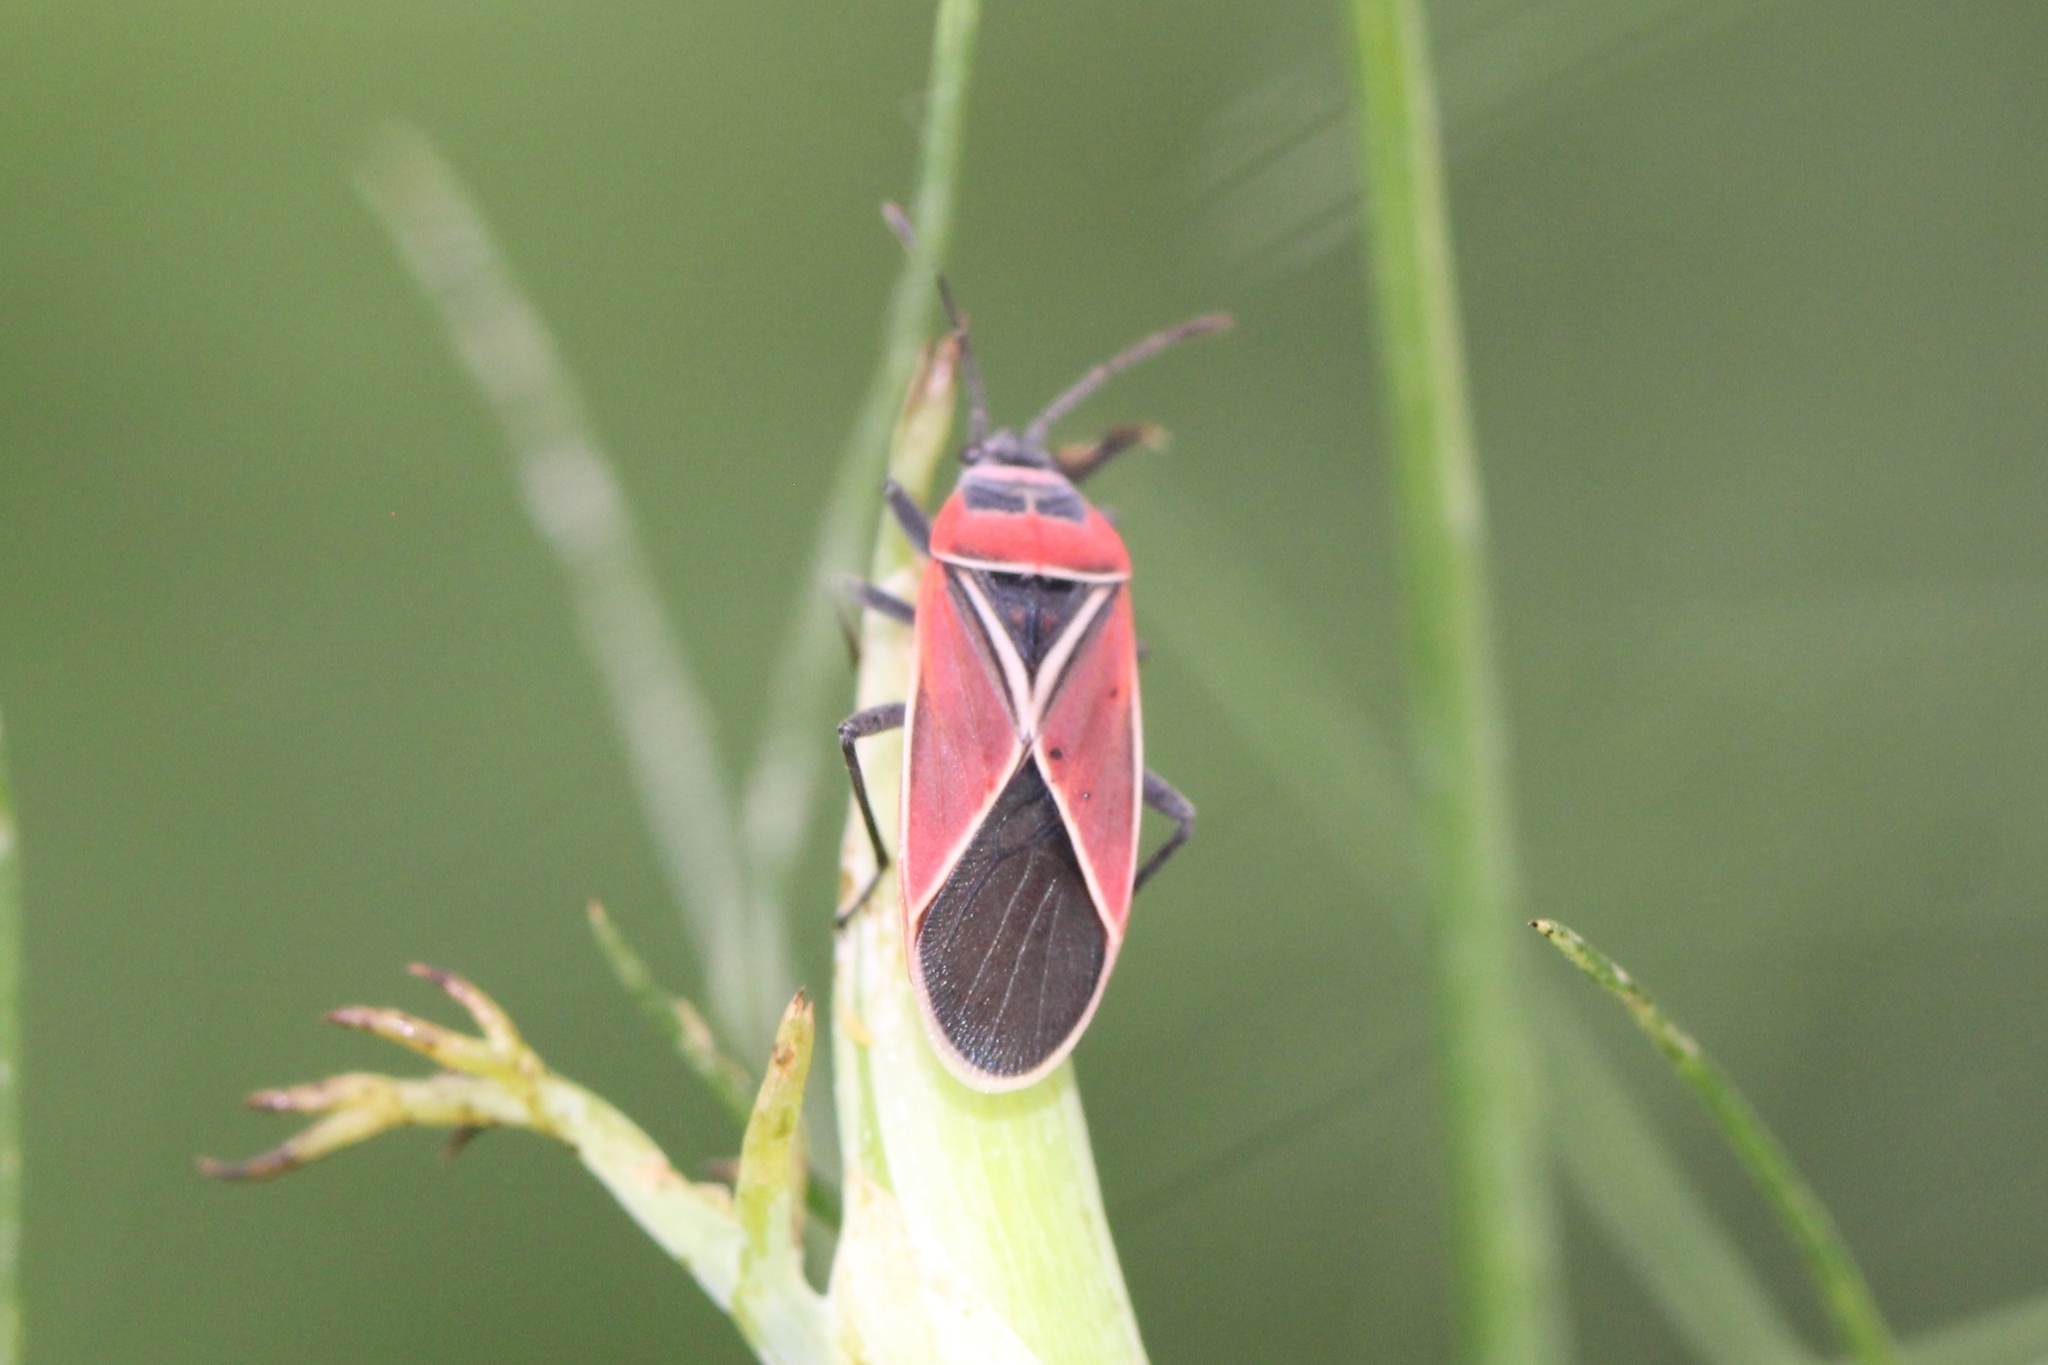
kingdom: Animalia
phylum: Arthropoda
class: Insecta
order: Hemiptera
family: Lygaeidae
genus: Neacoryphus
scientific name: Neacoryphus bicrucis
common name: Lygaeid bug
